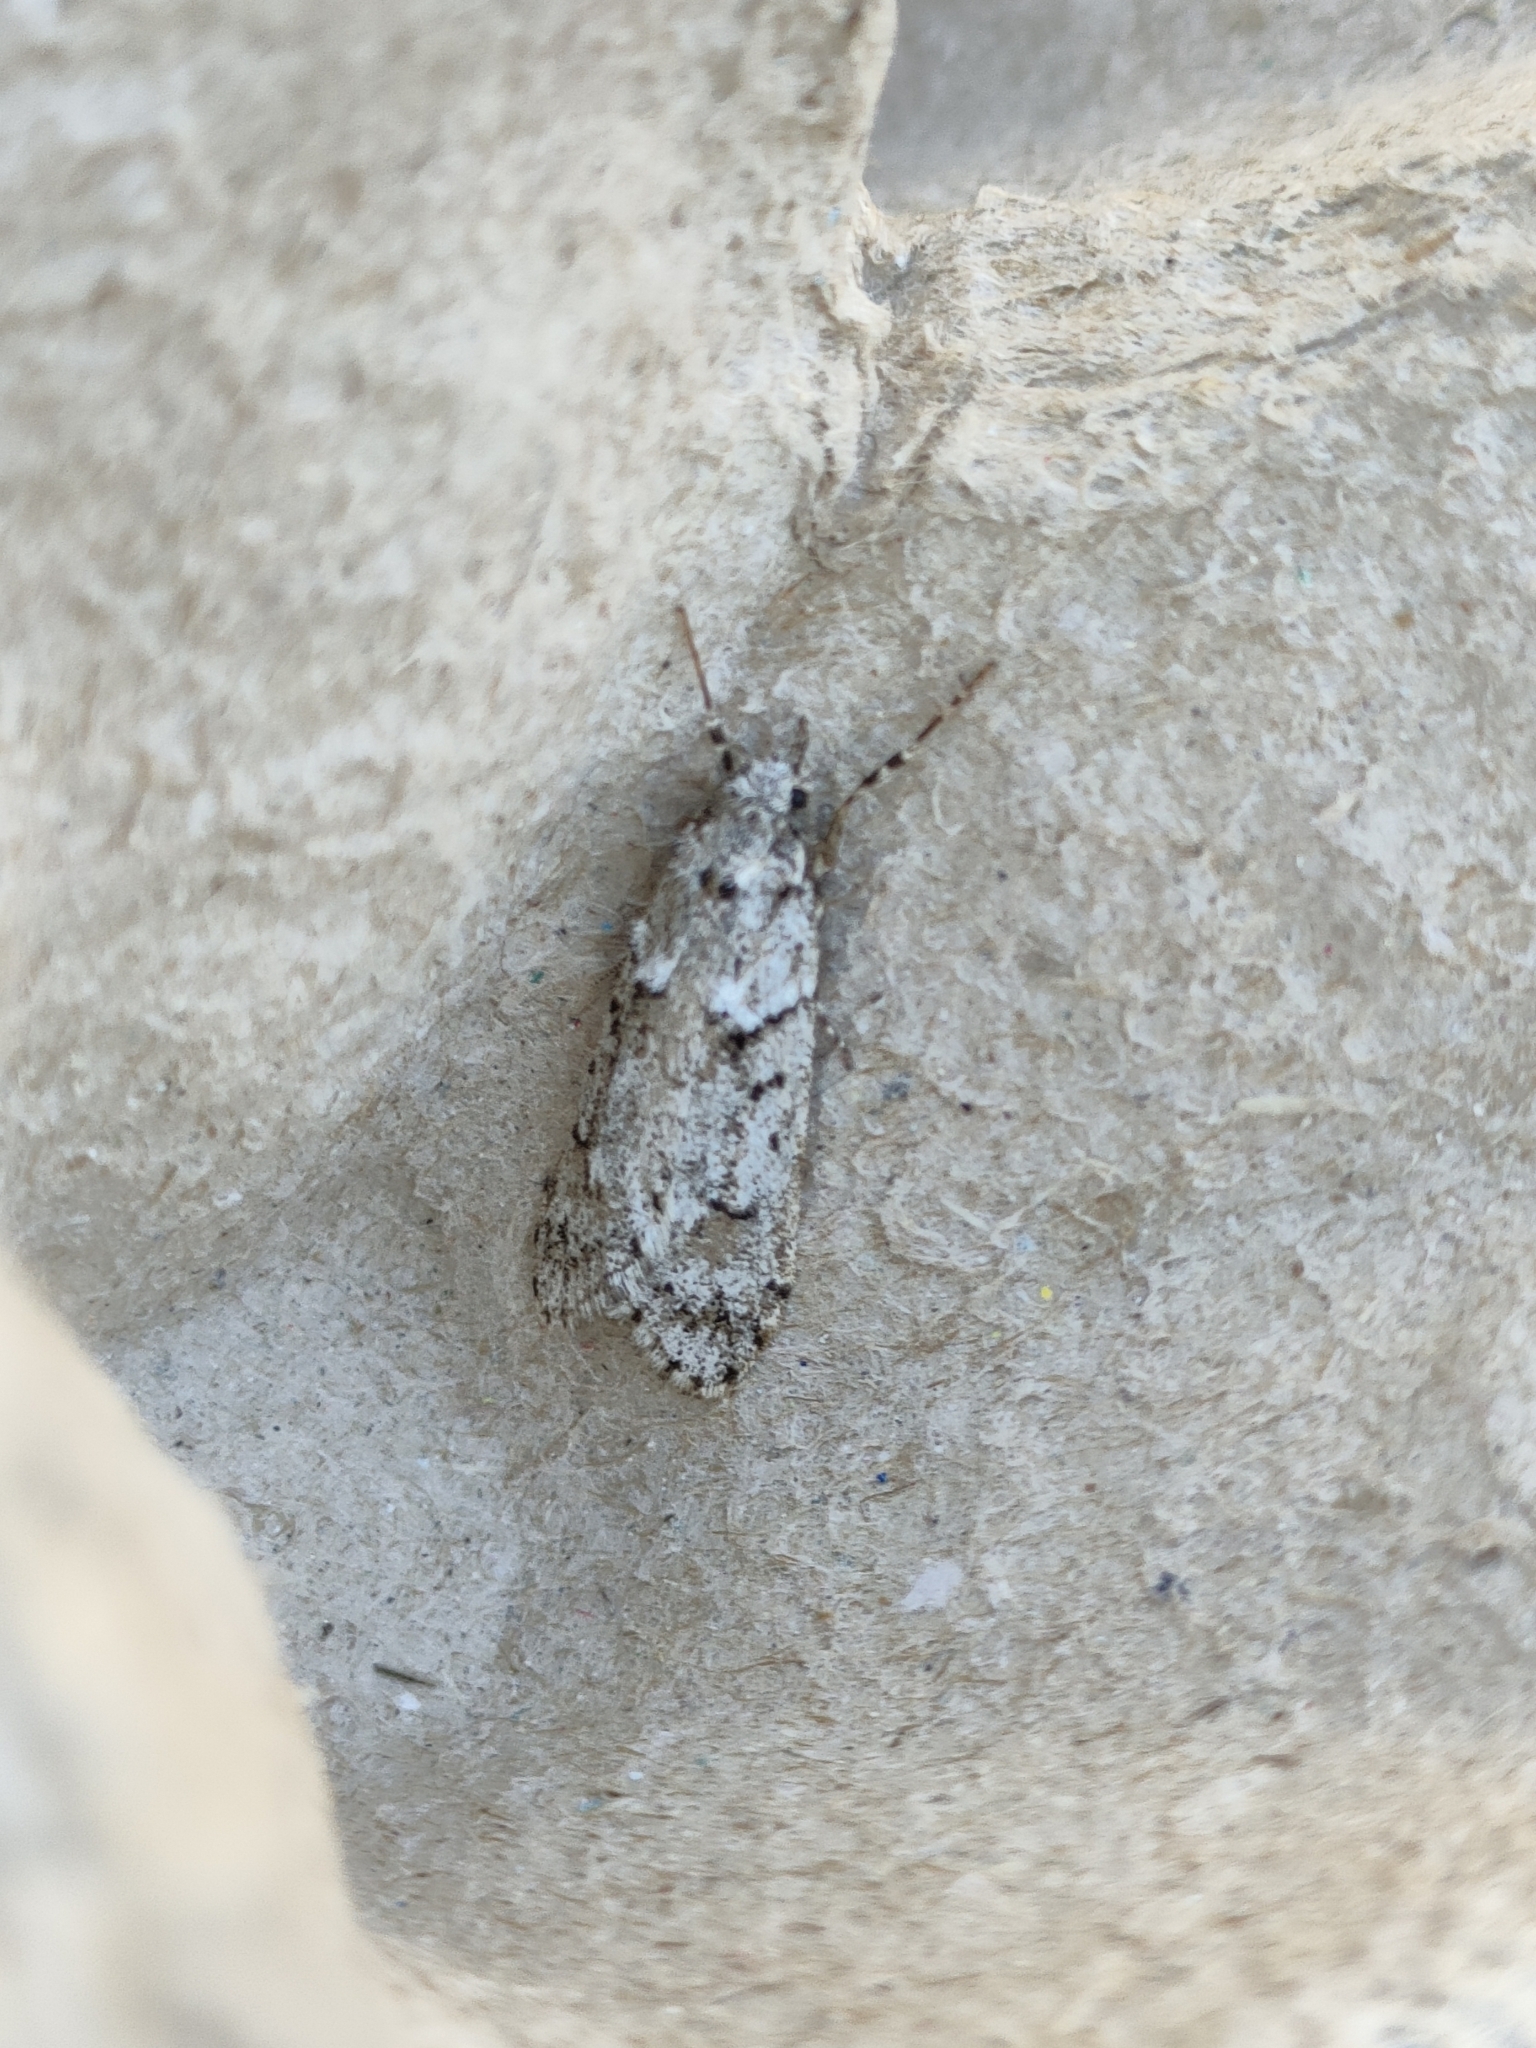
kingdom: Animalia
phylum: Arthropoda
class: Insecta
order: Lepidoptera
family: Lypusidae
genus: Diurnea
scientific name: Diurnea fagella
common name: March tubic
